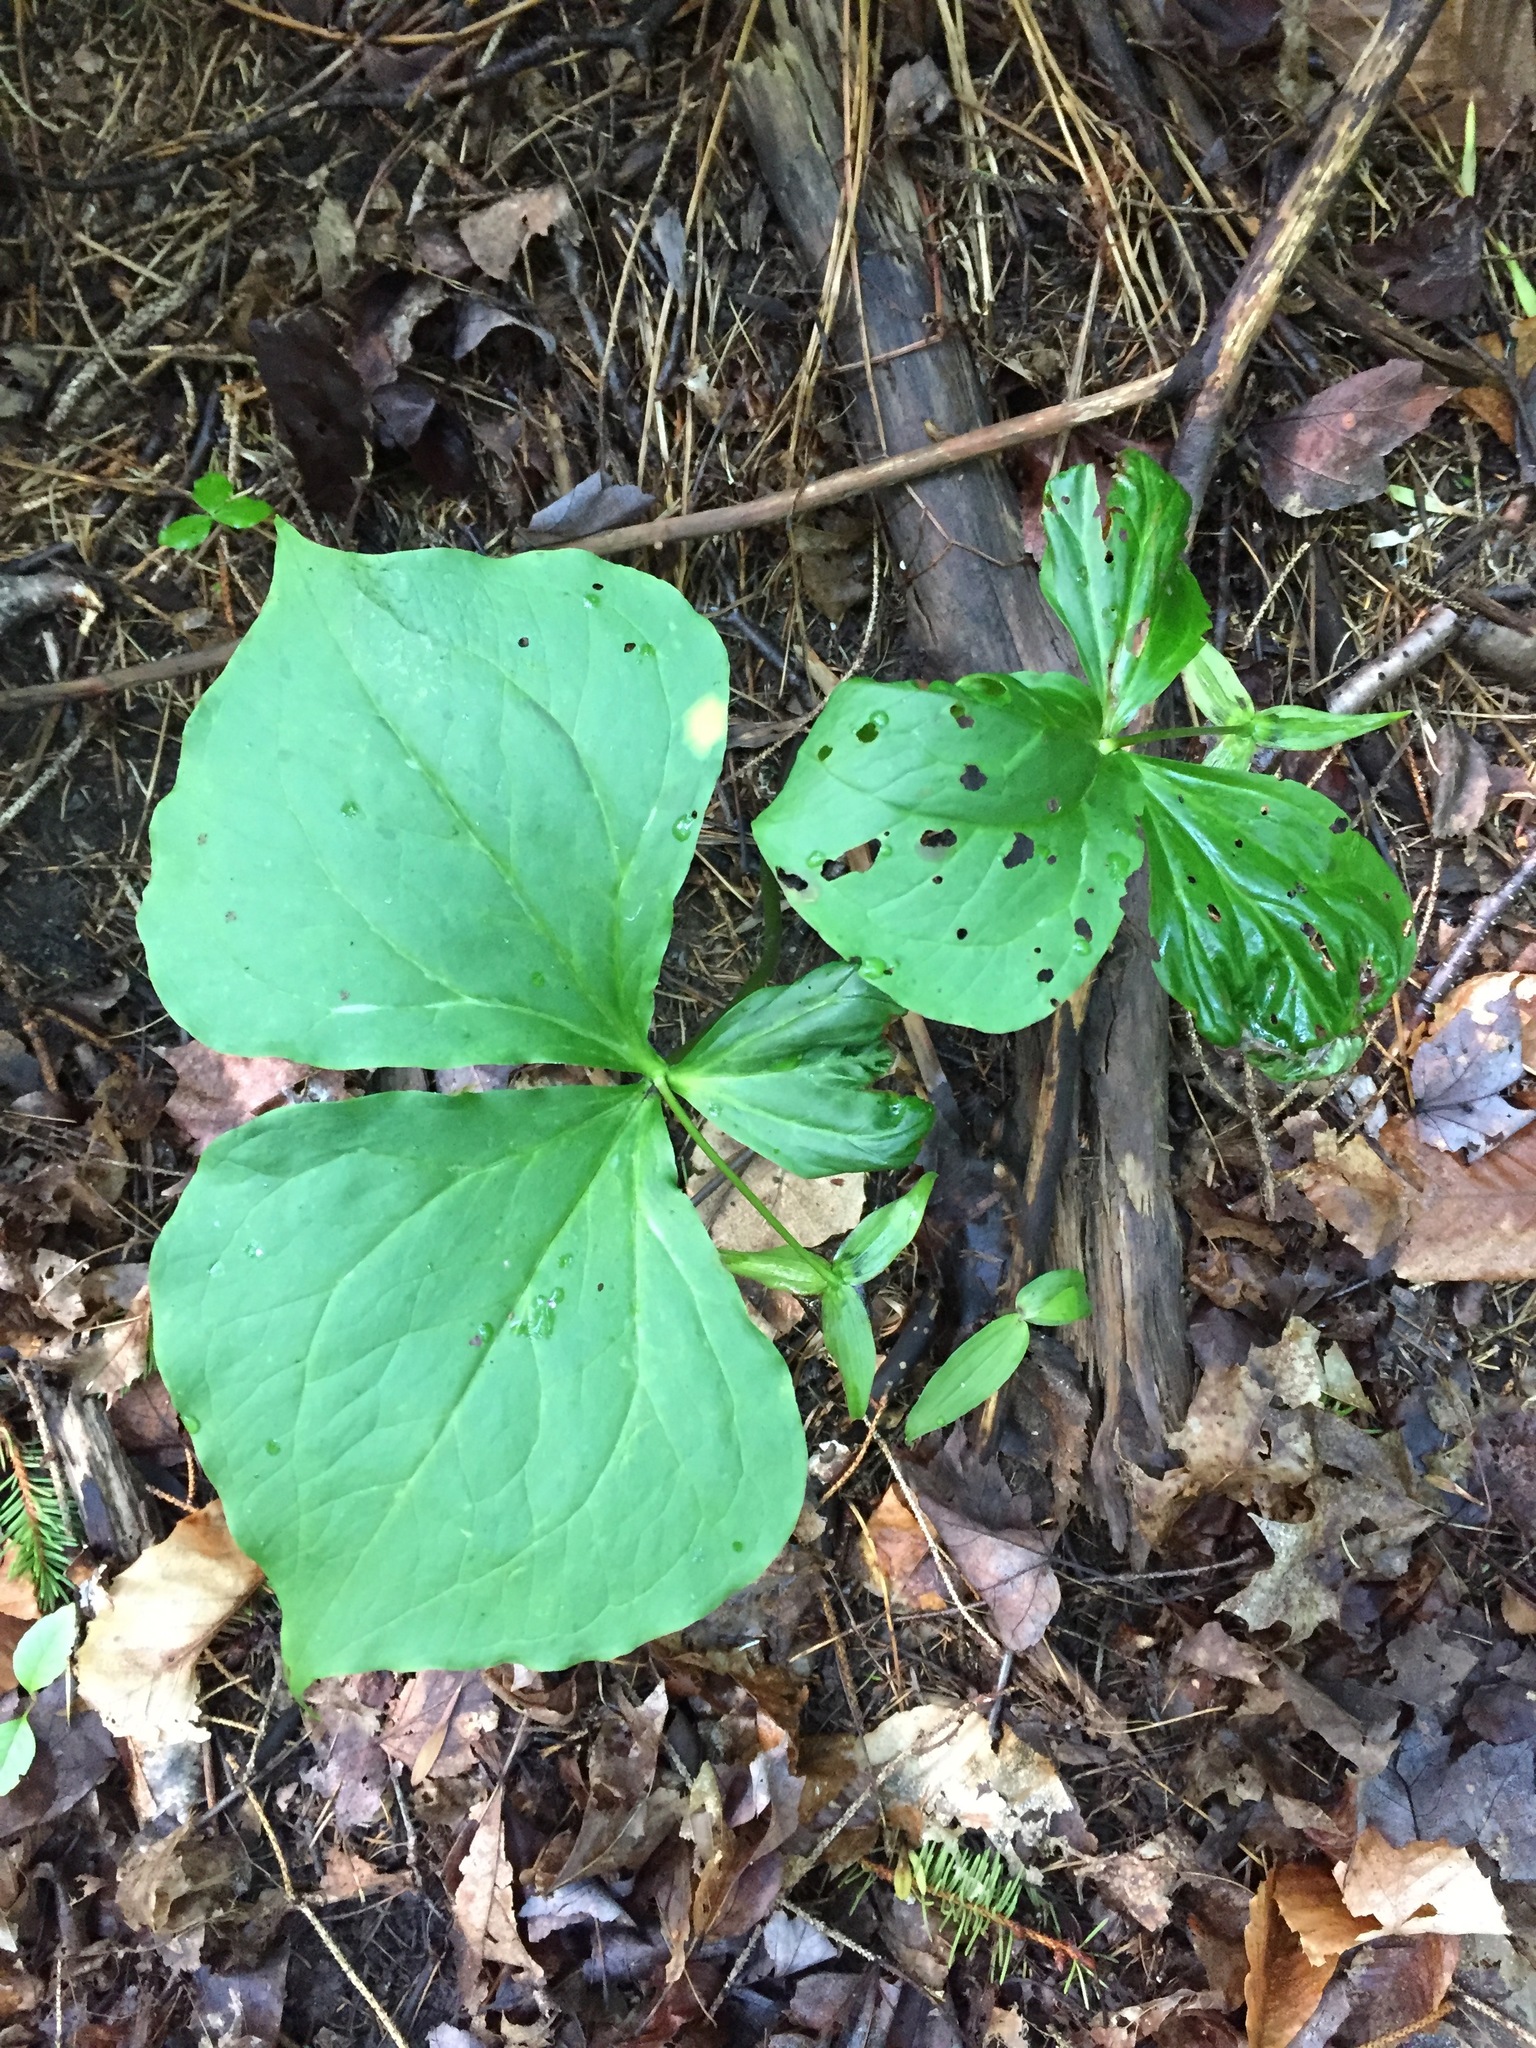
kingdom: Plantae
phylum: Tracheophyta
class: Liliopsida
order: Liliales
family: Melanthiaceae
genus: Trillium
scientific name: Trillium erectum
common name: Purple trillium
